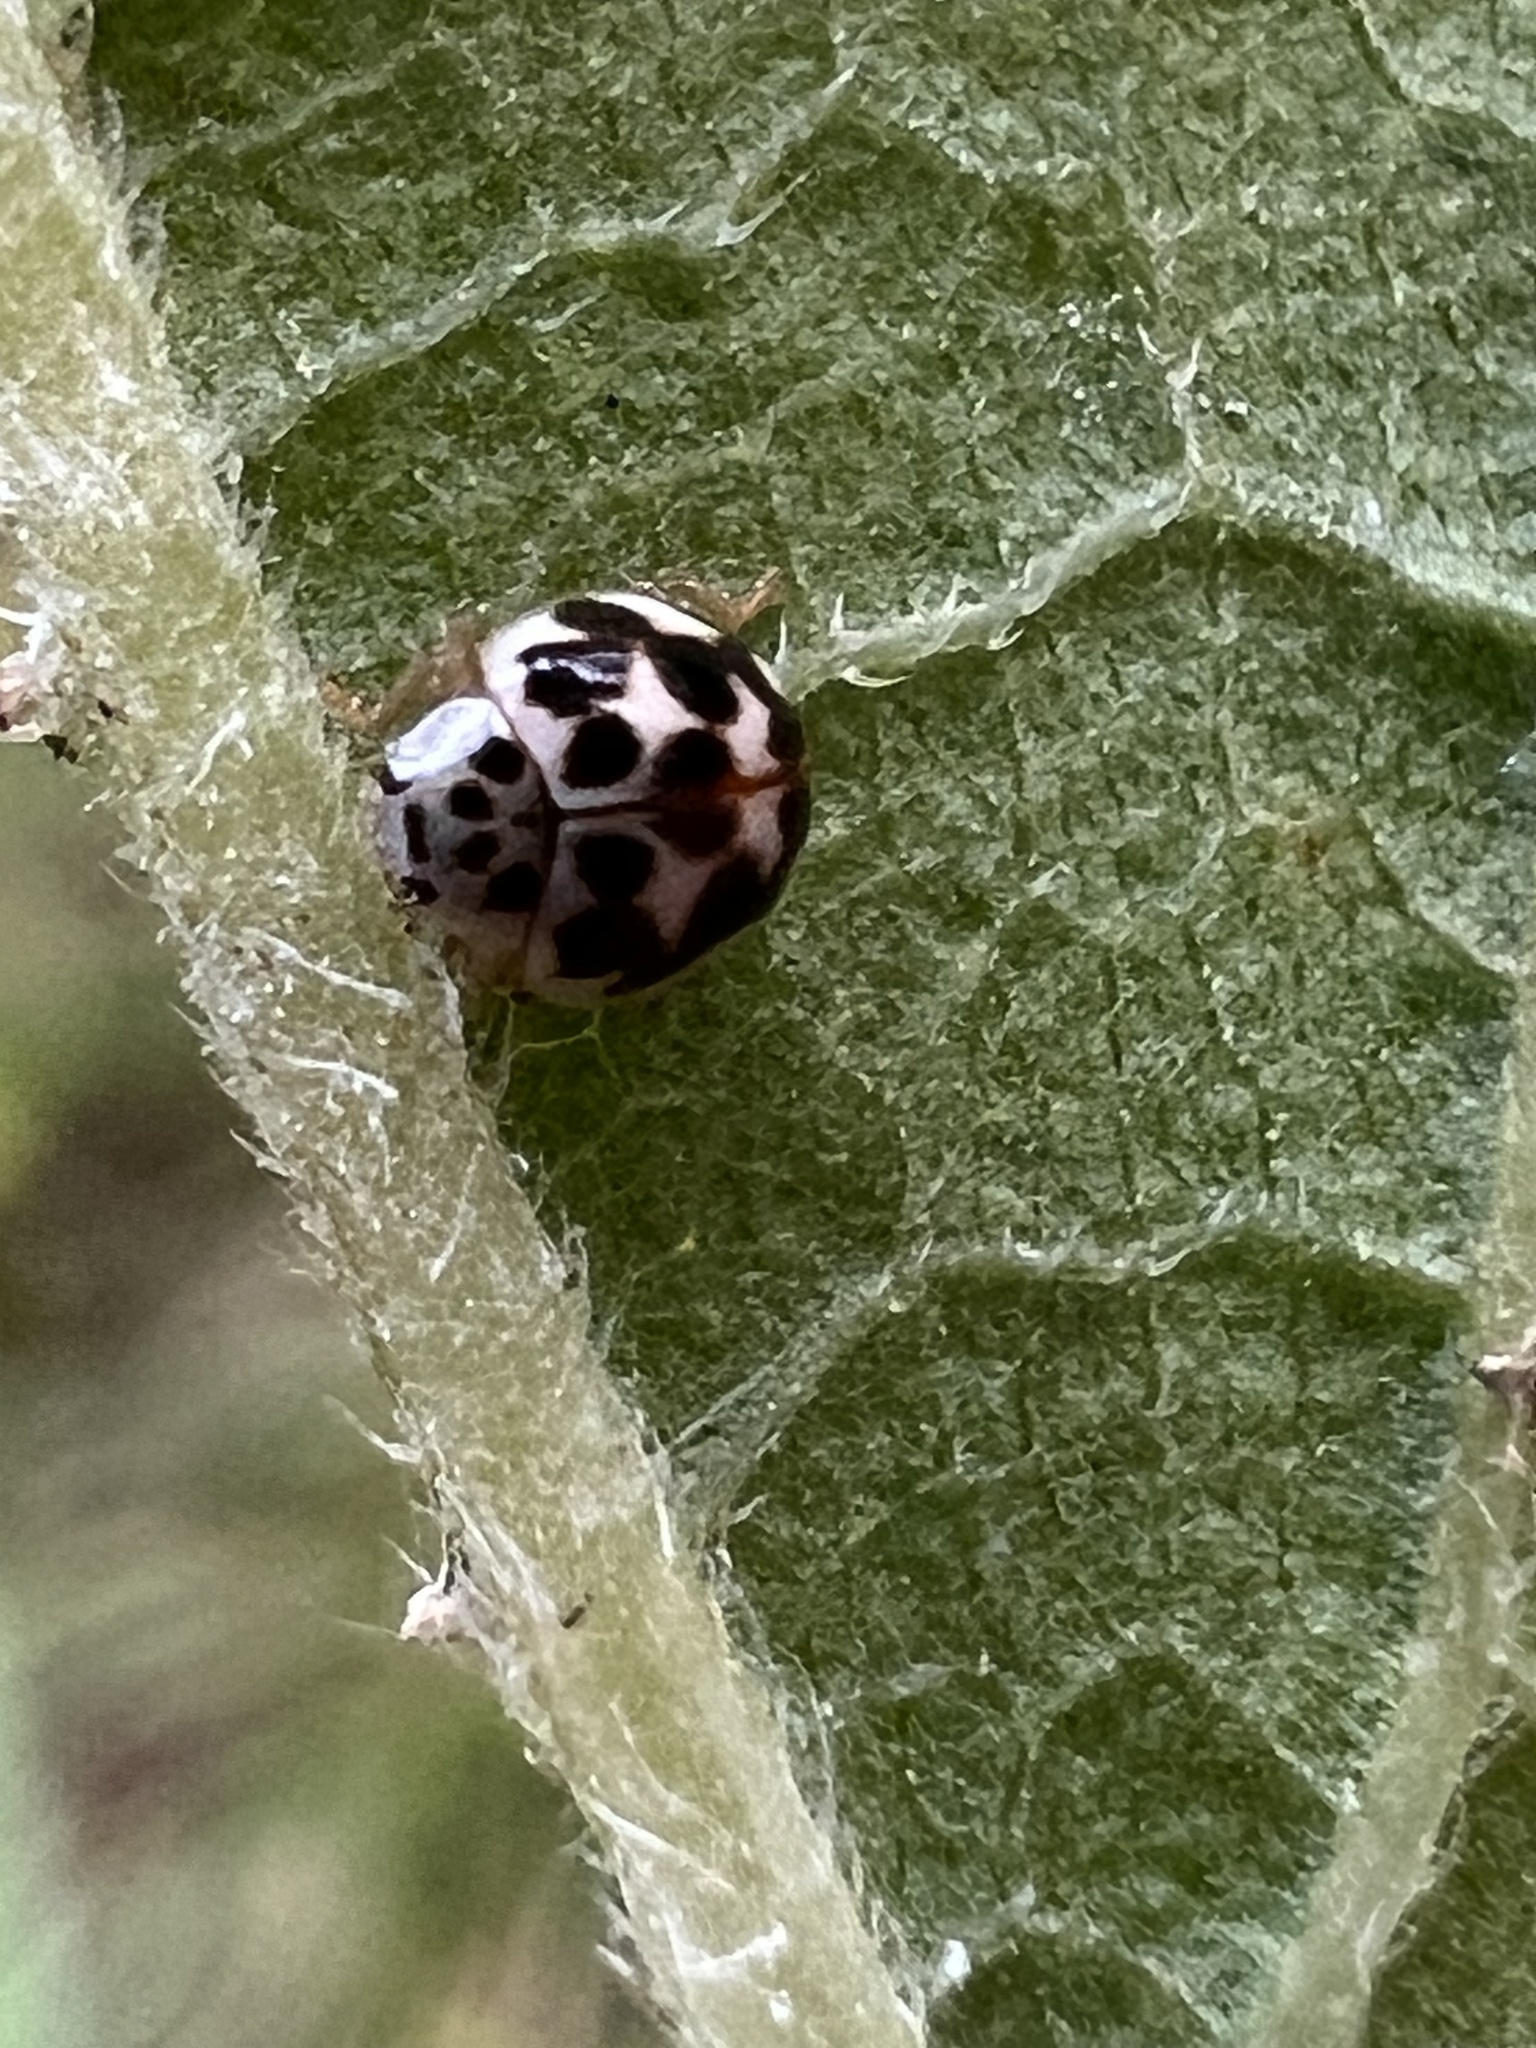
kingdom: Animalia
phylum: Arthropoda
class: Insecta
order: Coleoptera
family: Coccinellidae
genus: Psyllobora
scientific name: Psyllobora vigintimaculata
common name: Ladybird beetle
